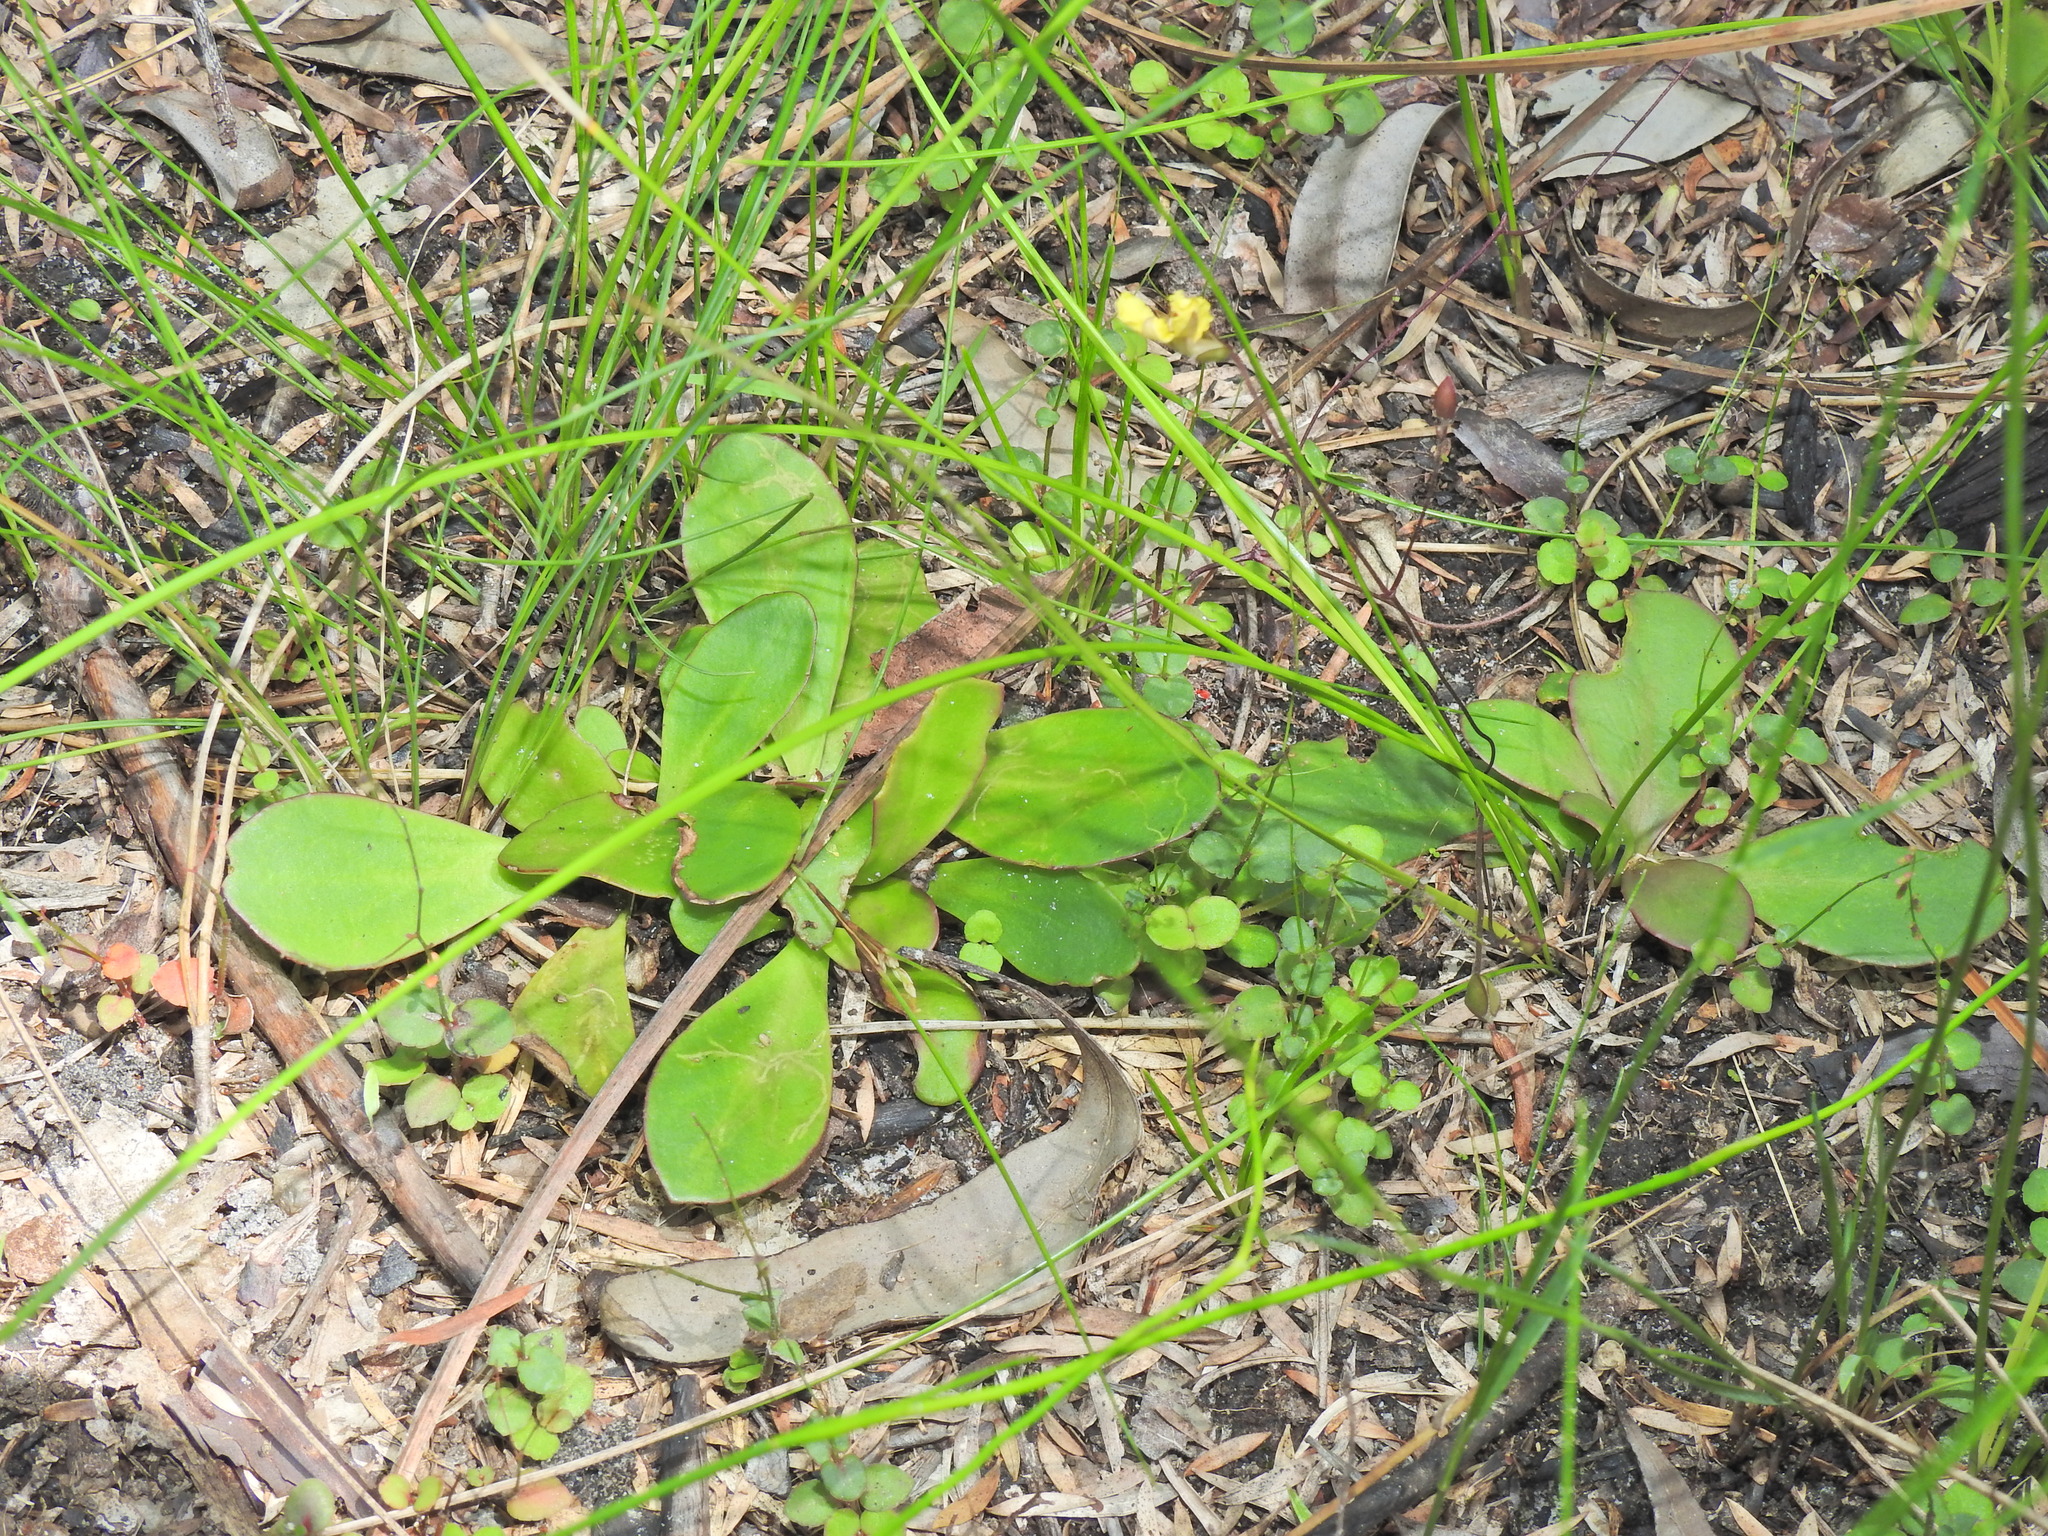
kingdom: Plantae
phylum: Tracheophyta
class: Magnoliopsida
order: Asterales
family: Goodeniaceae
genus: Goodenia
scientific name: Goodenia mystrophylla
